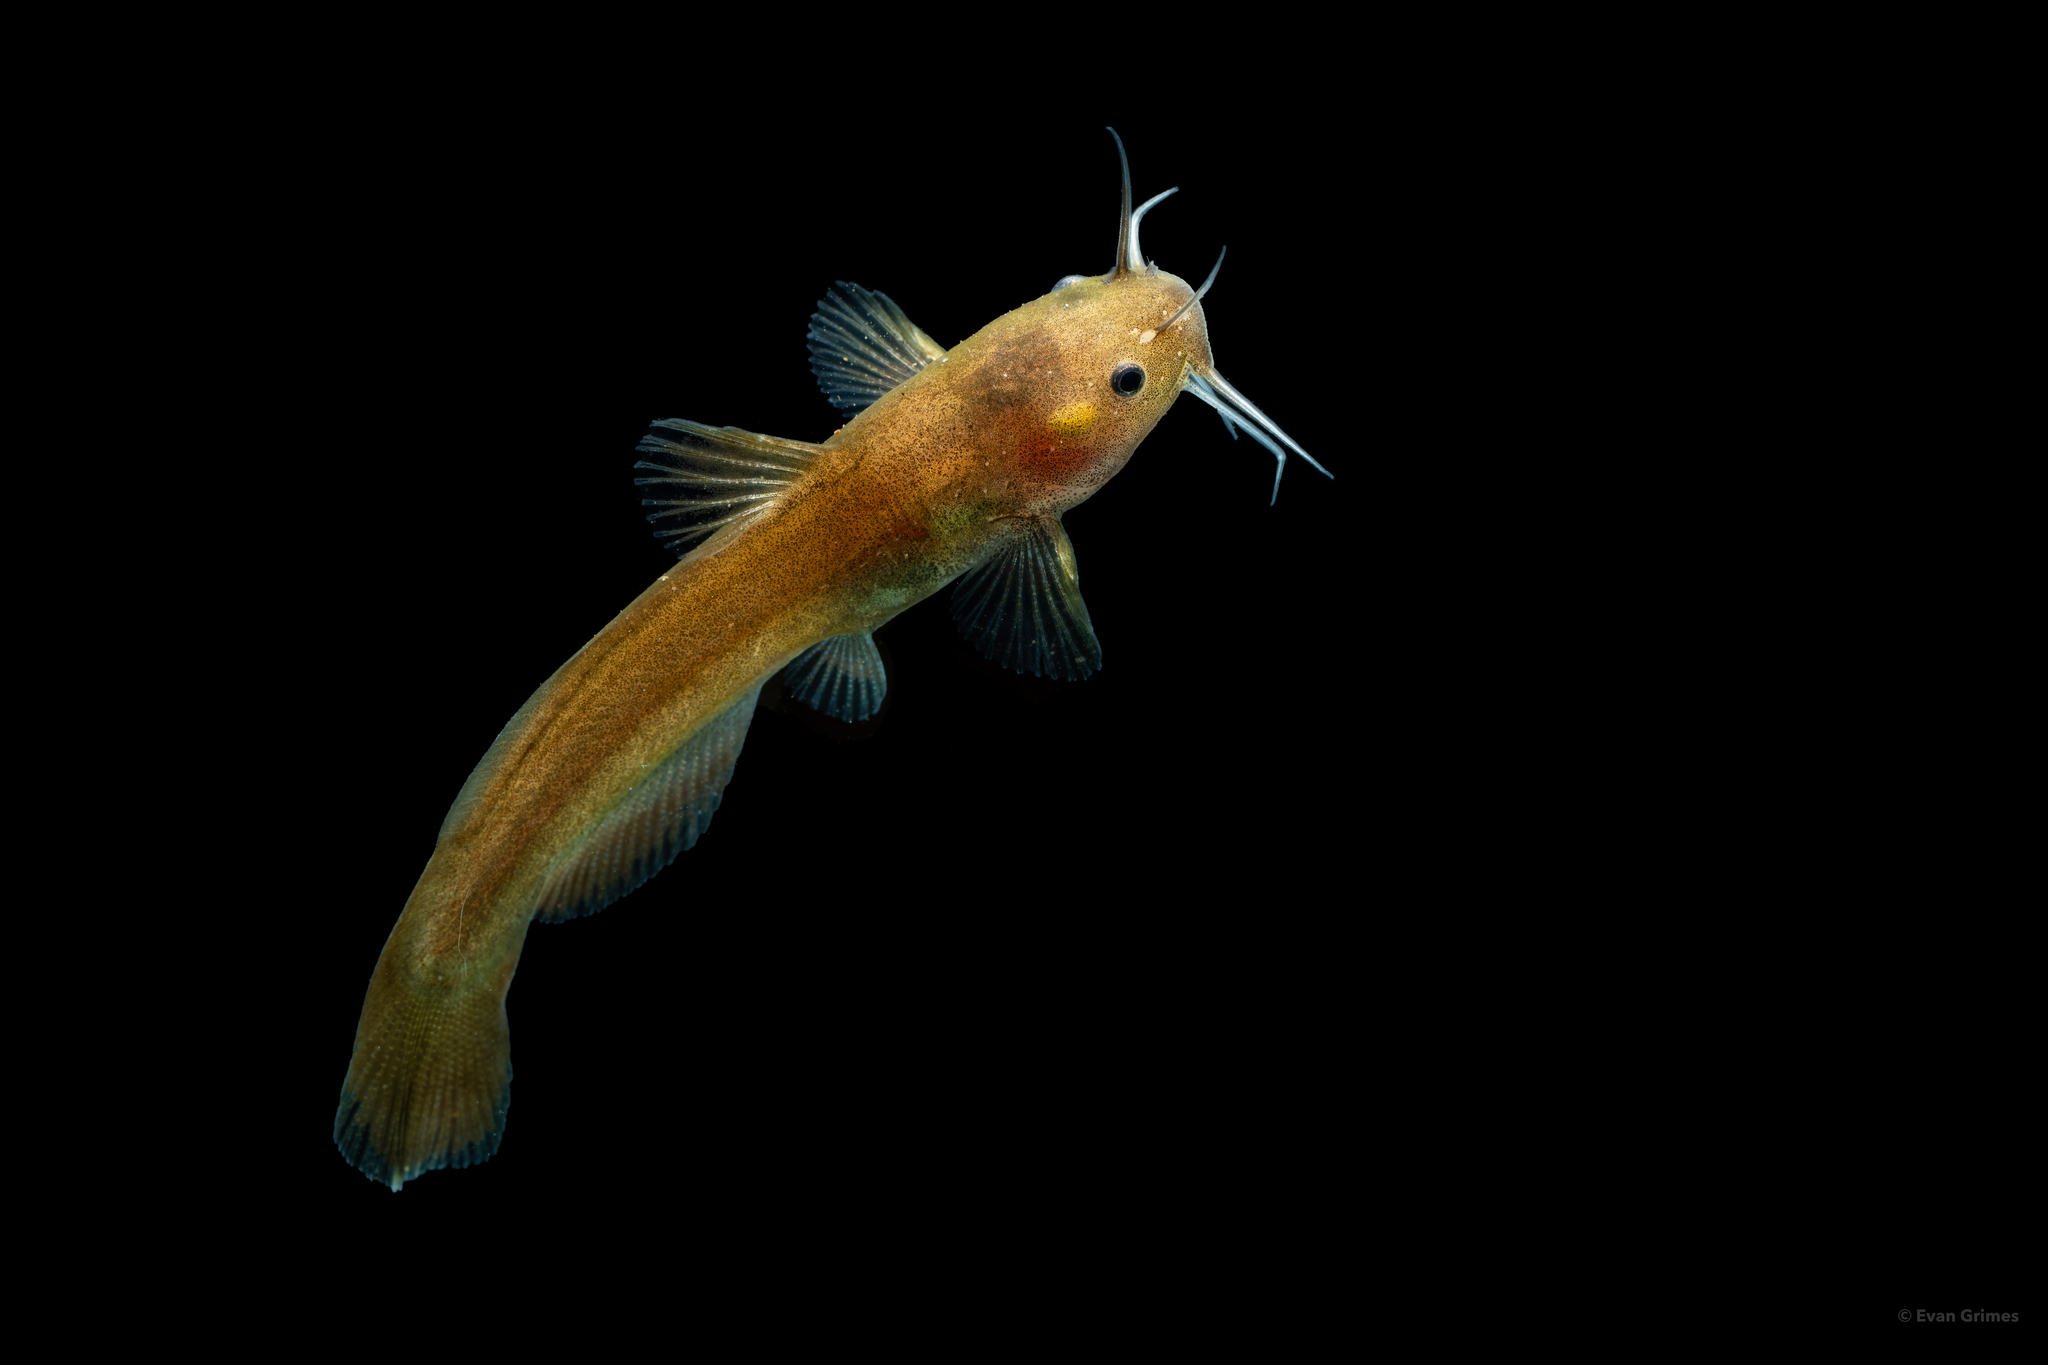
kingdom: Animalia
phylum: Chordata
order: Siluriformes
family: Ictaluridae
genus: Noturus
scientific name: Noturus nocturnus
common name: Freckled madtom
